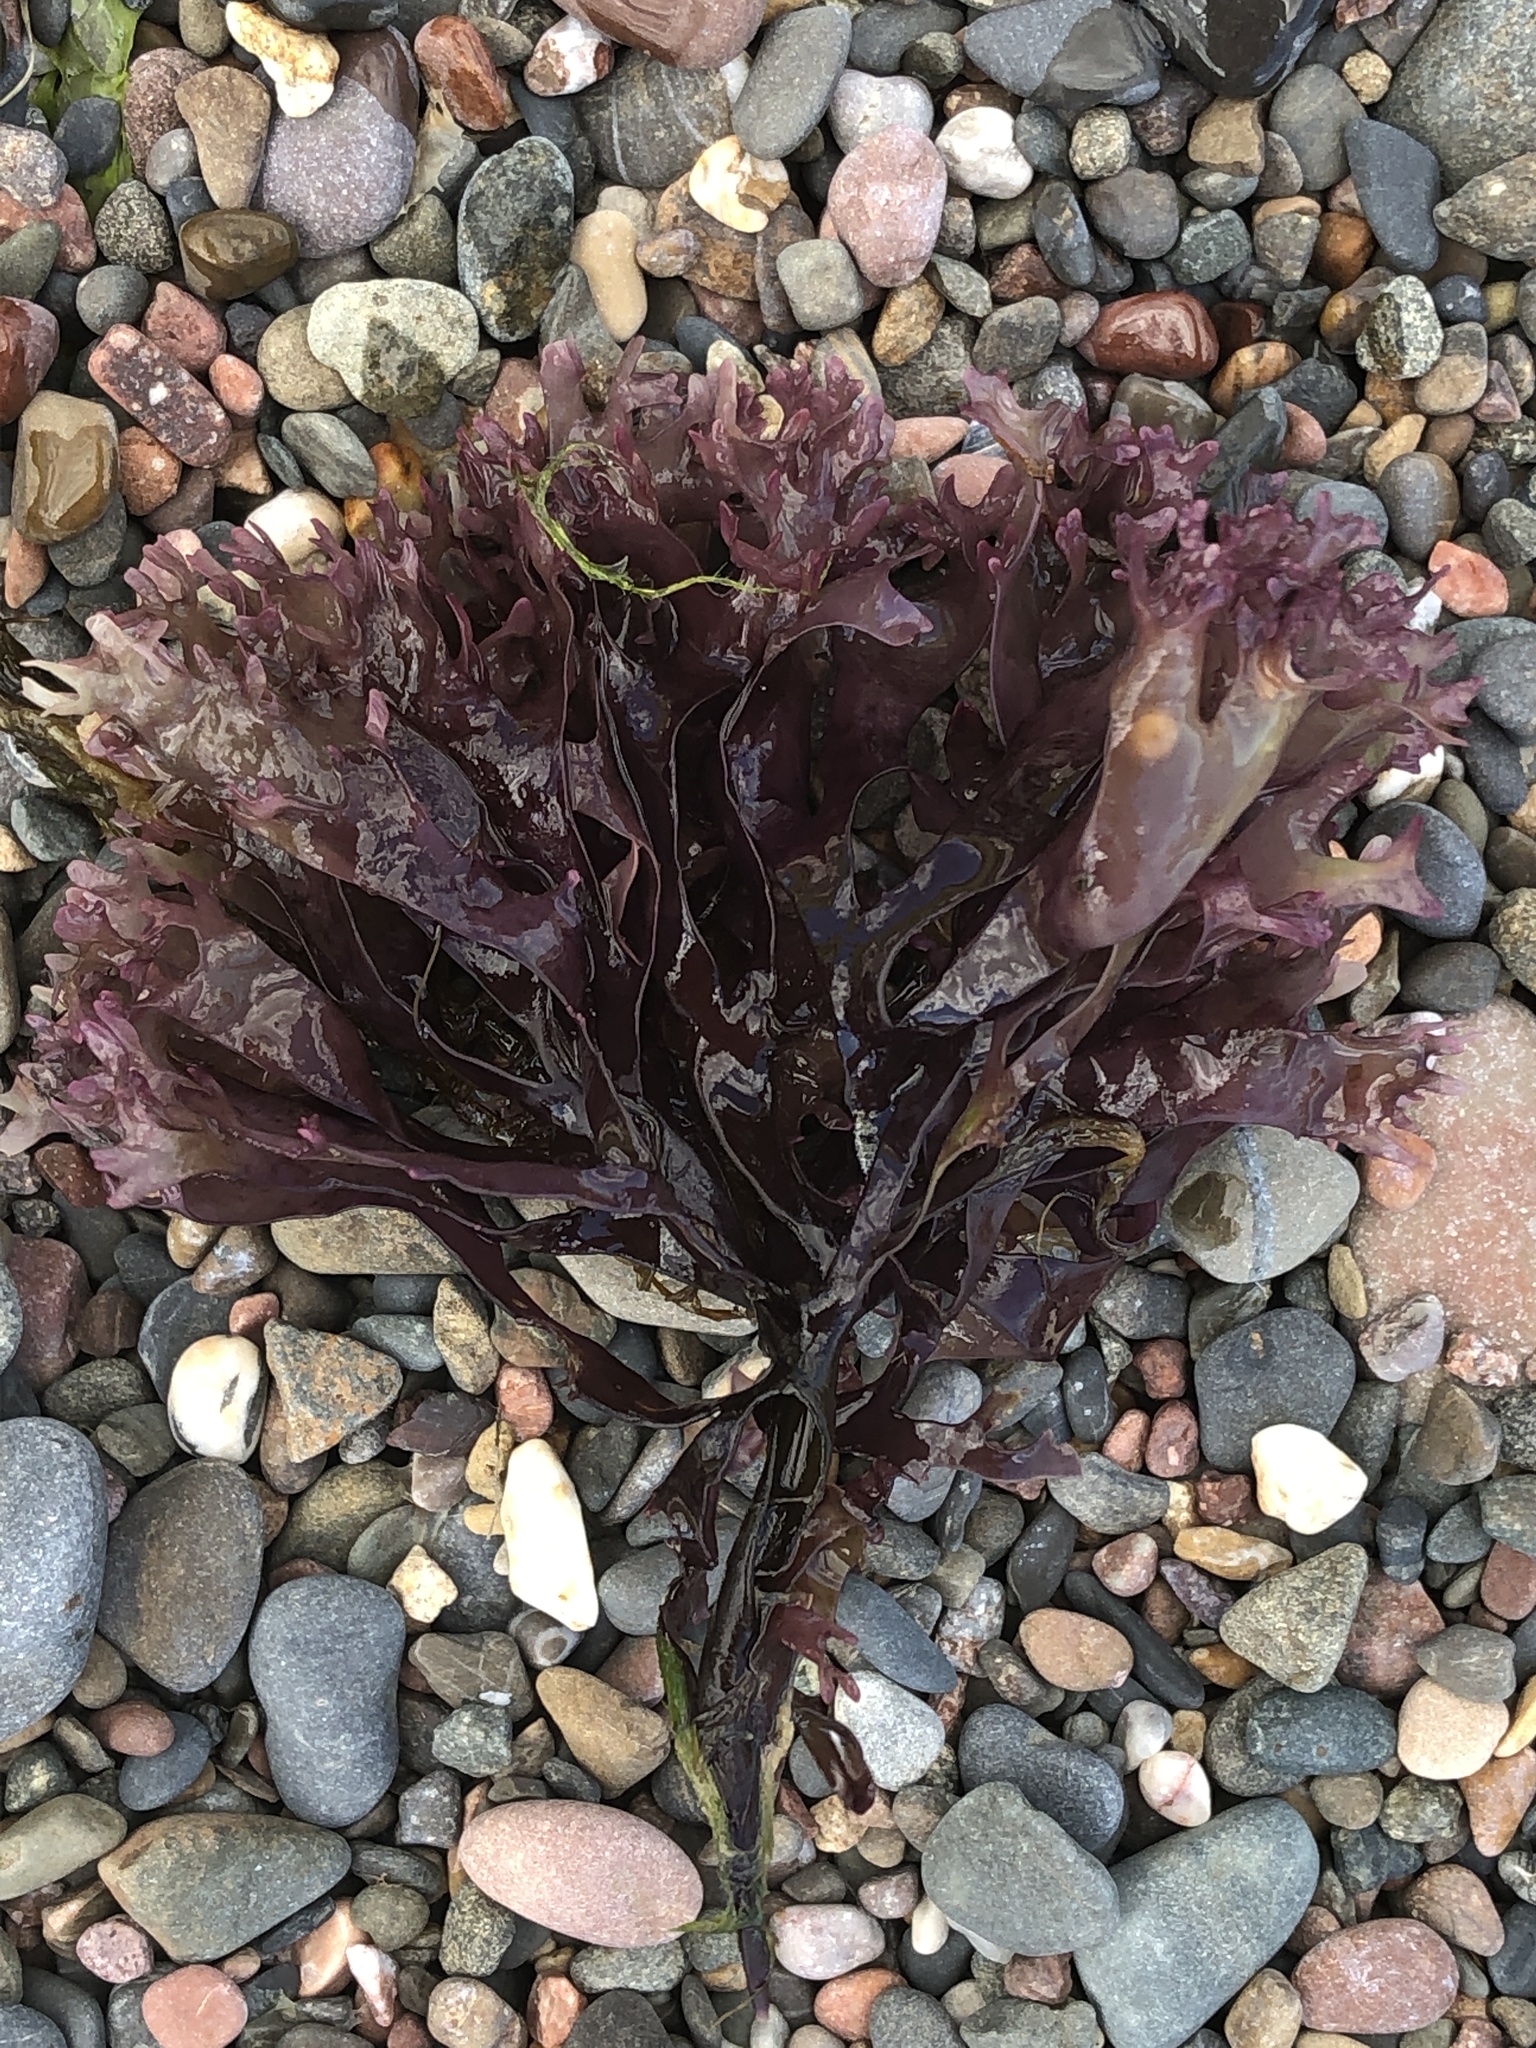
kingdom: Plantae
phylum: Rhodophyta
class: Florideophyceae
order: Gigartinales
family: Gigartinaceae
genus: Chondrus
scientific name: Chondrus crispus
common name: Carrageen
